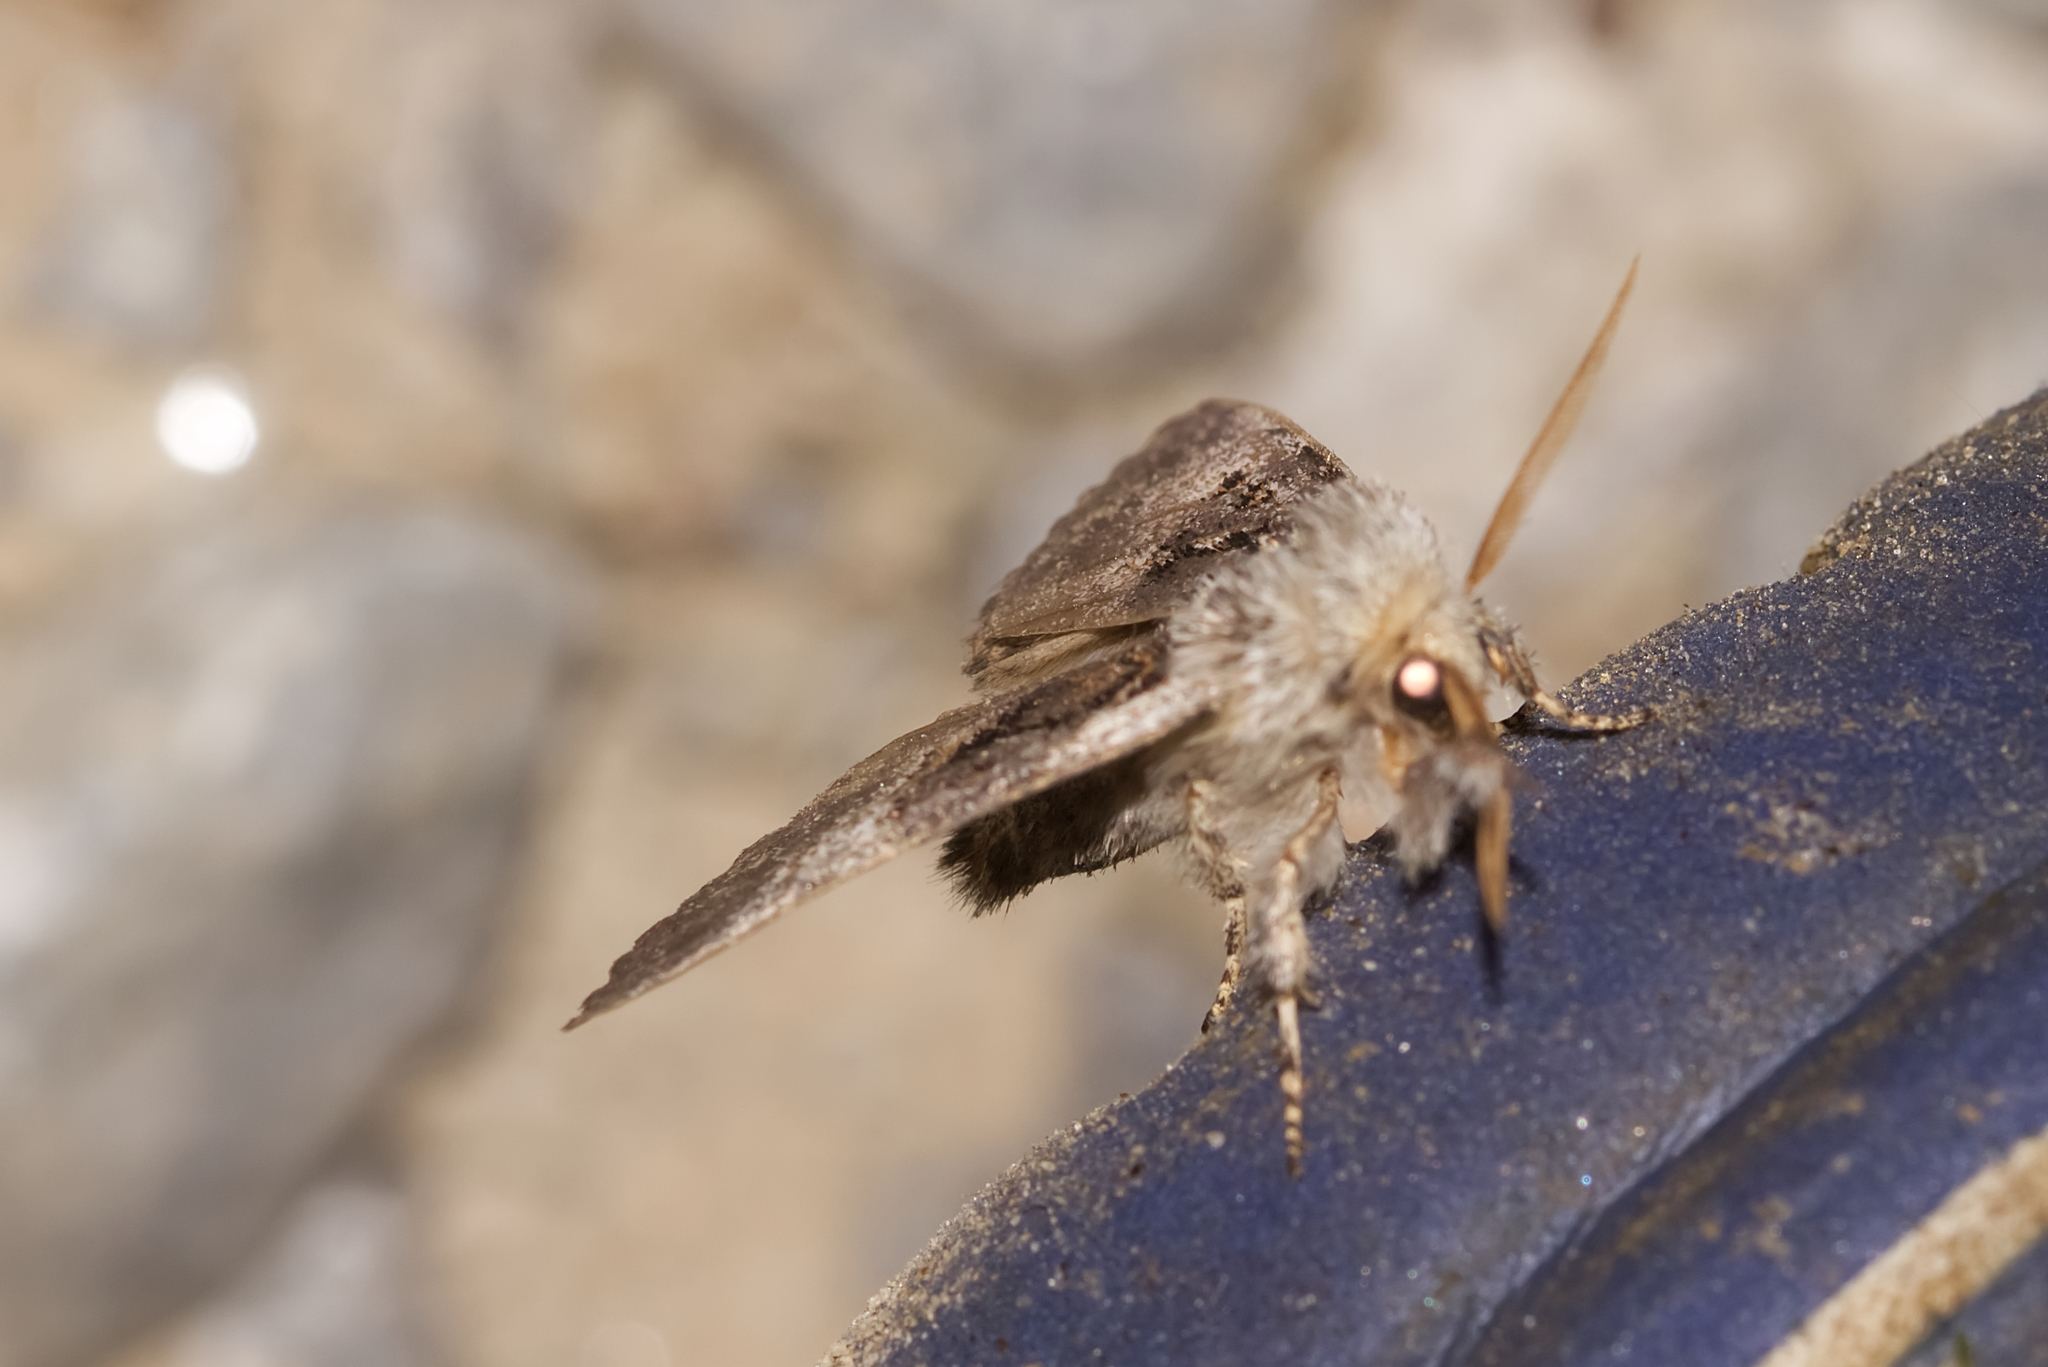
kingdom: Animalia
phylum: Arthropoda
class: Insecta
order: Lepidoptera
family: Noctuidae
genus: Colocasia
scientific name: Colocasia coryli
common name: Nut-tree tussock
